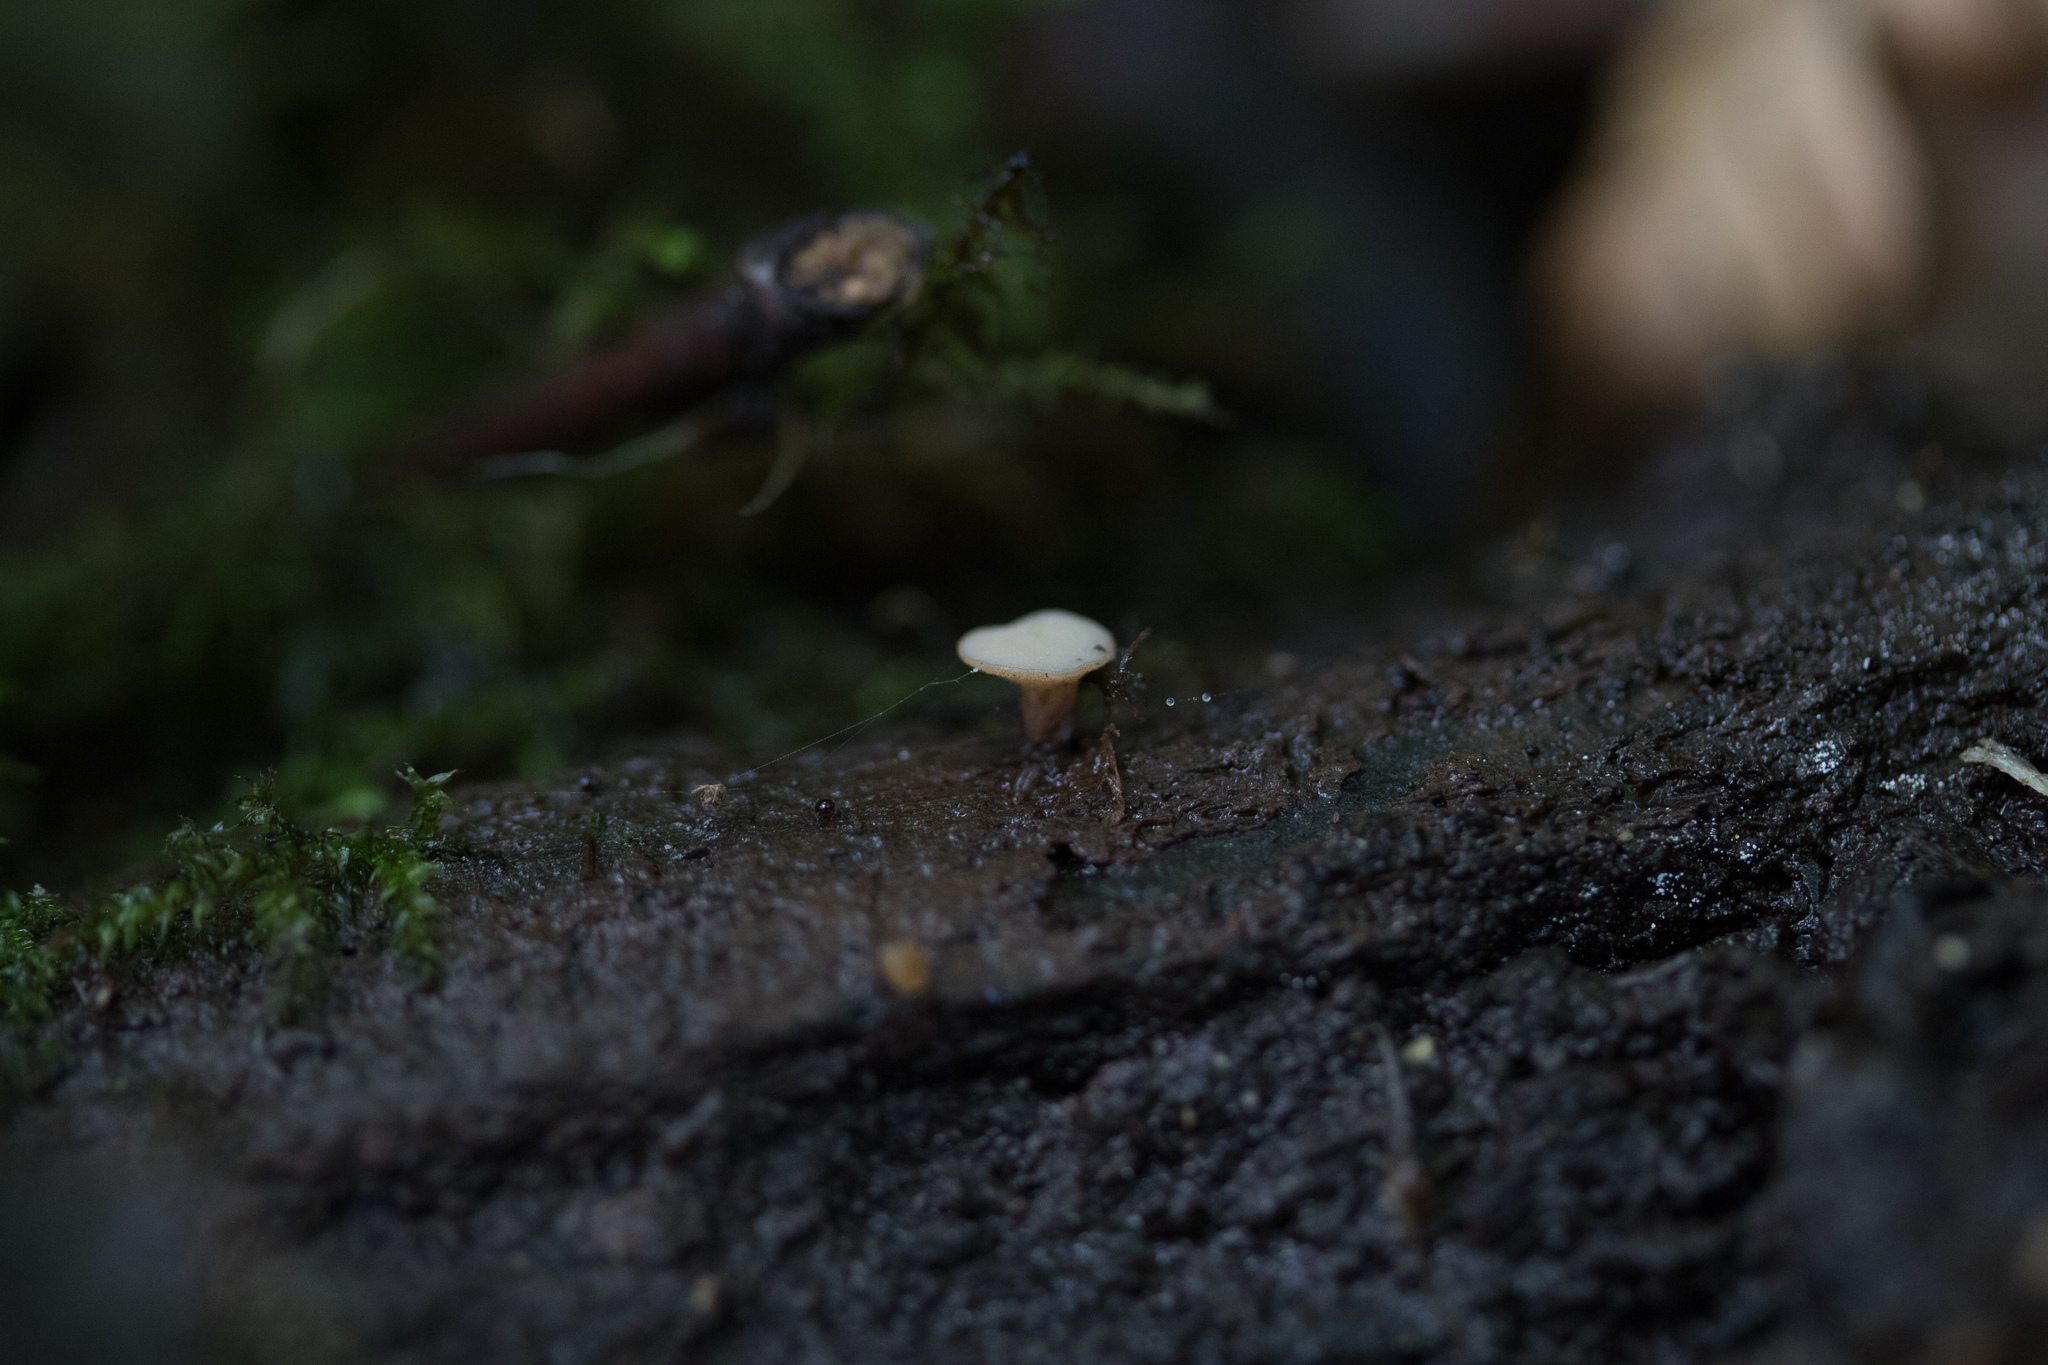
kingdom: Fungi
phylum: Ascomycota
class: Leotiomycetes
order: Helotiales
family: Helotiaceae
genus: Tatraea
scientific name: Tatraea macrospora
